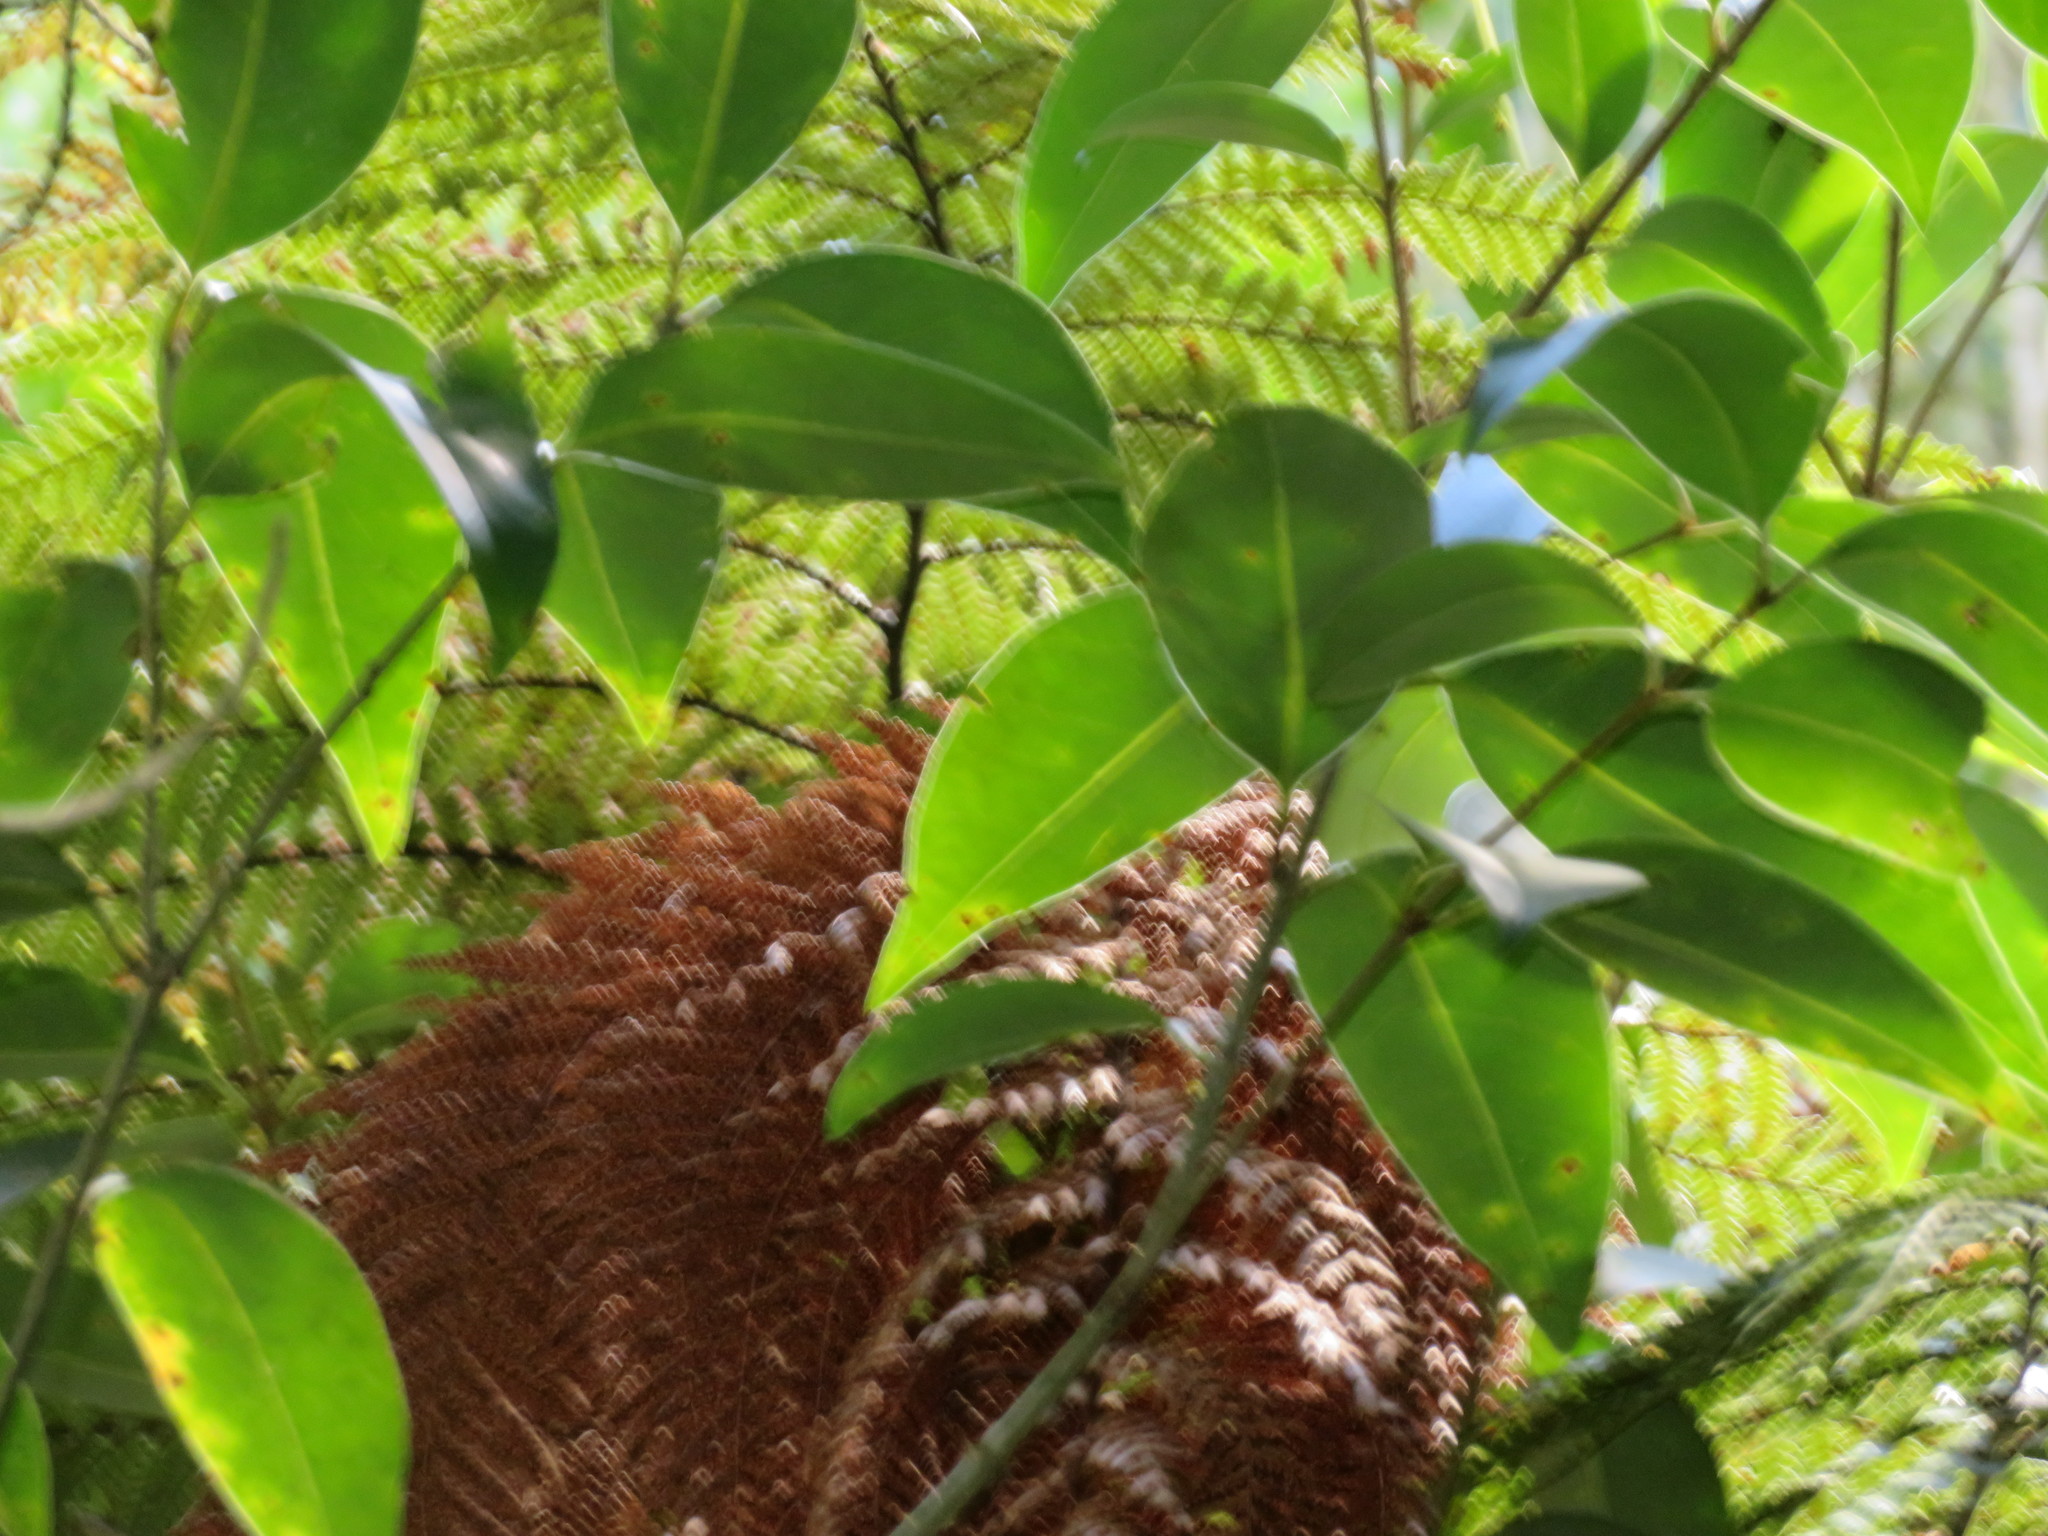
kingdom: Plantae
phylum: Tracheophyta
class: Polypodiopsida
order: Cyatheales
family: Dicksoniaceae
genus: Dicksonia
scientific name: Dicksonia squarrosa
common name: Hard treefern
